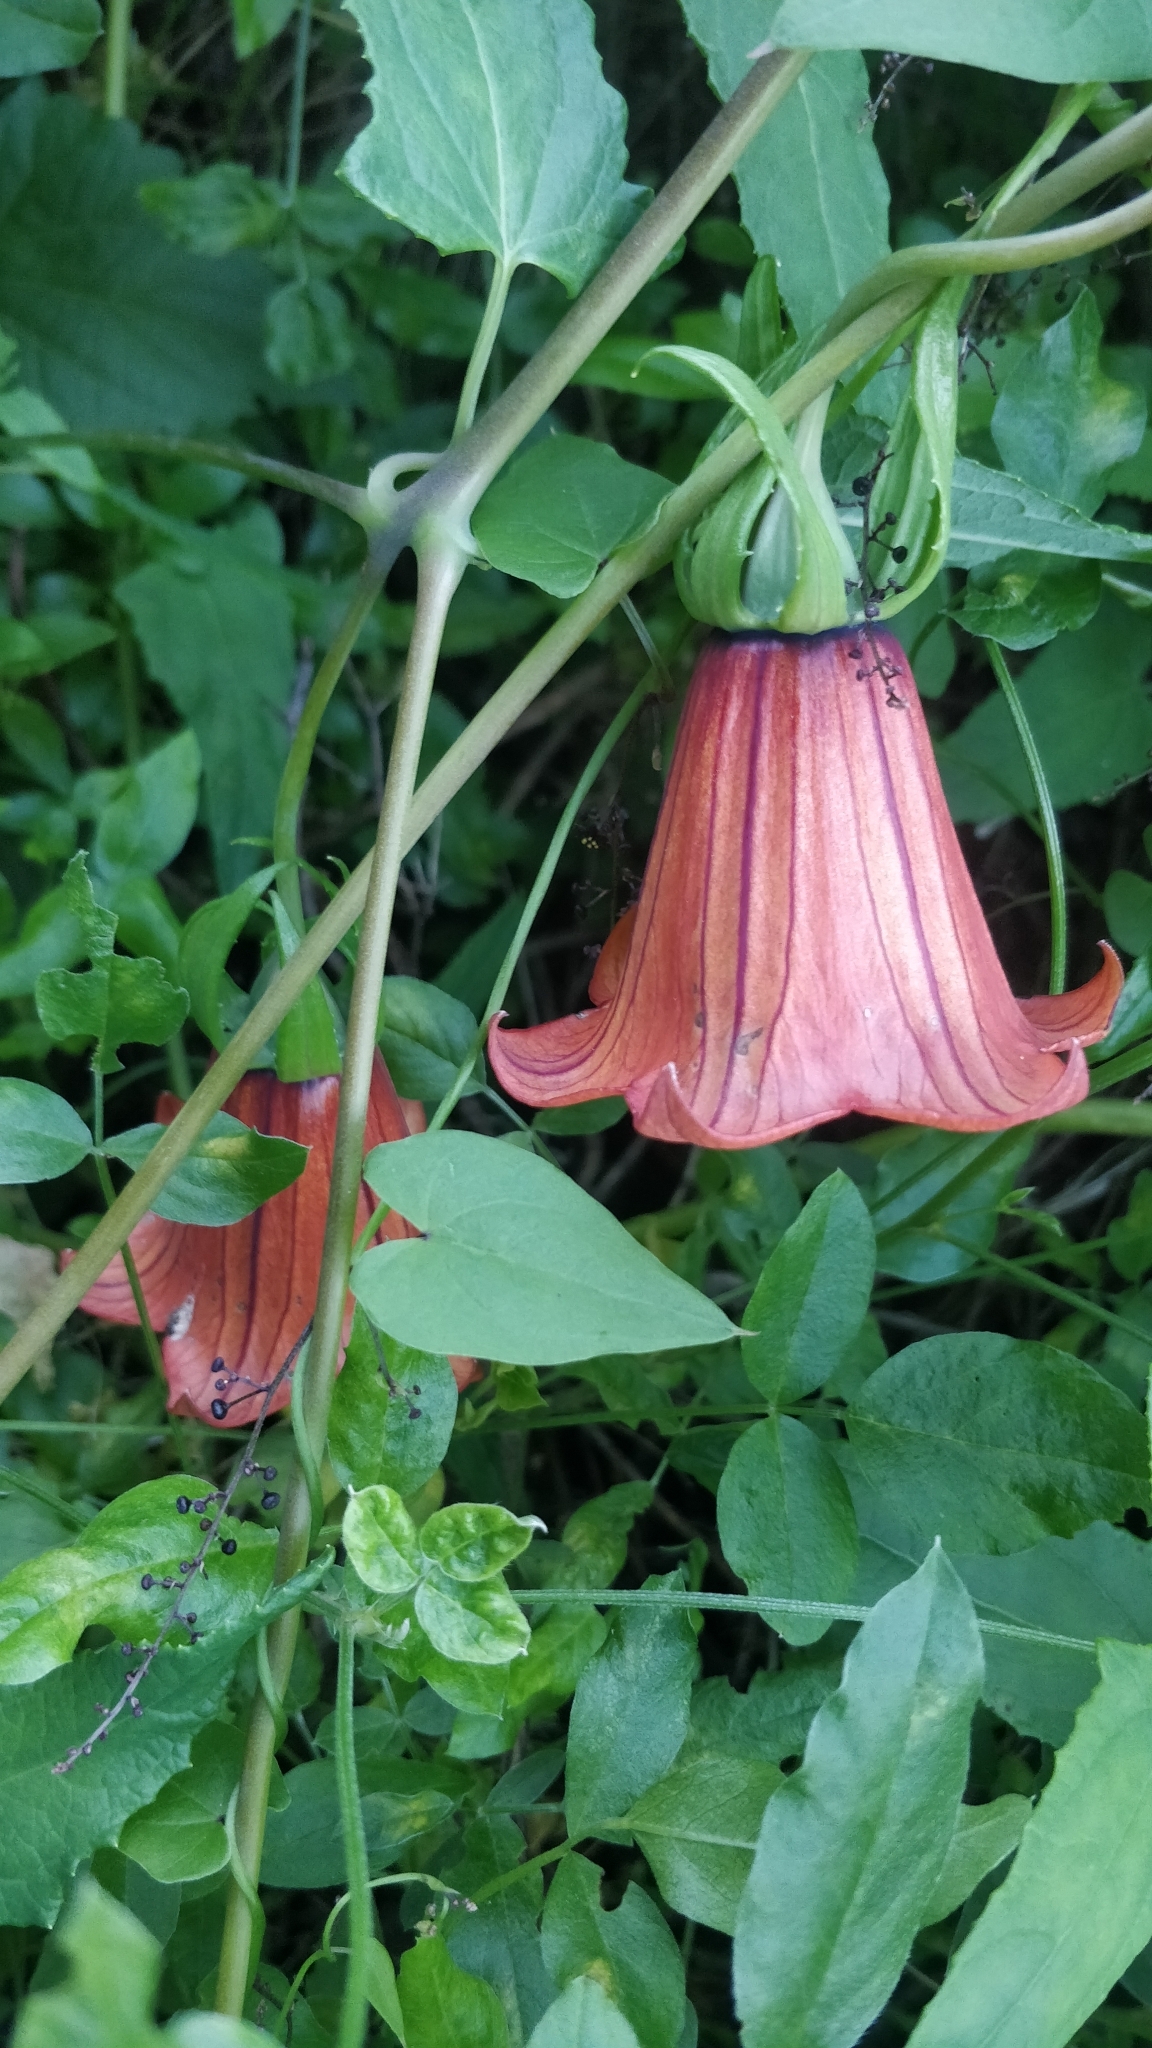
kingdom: Plantae
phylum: Tracheophyta
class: Magnoliopsida
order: Asterales
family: Campanulaceae
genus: Canarina
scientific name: Canarina canariensis
